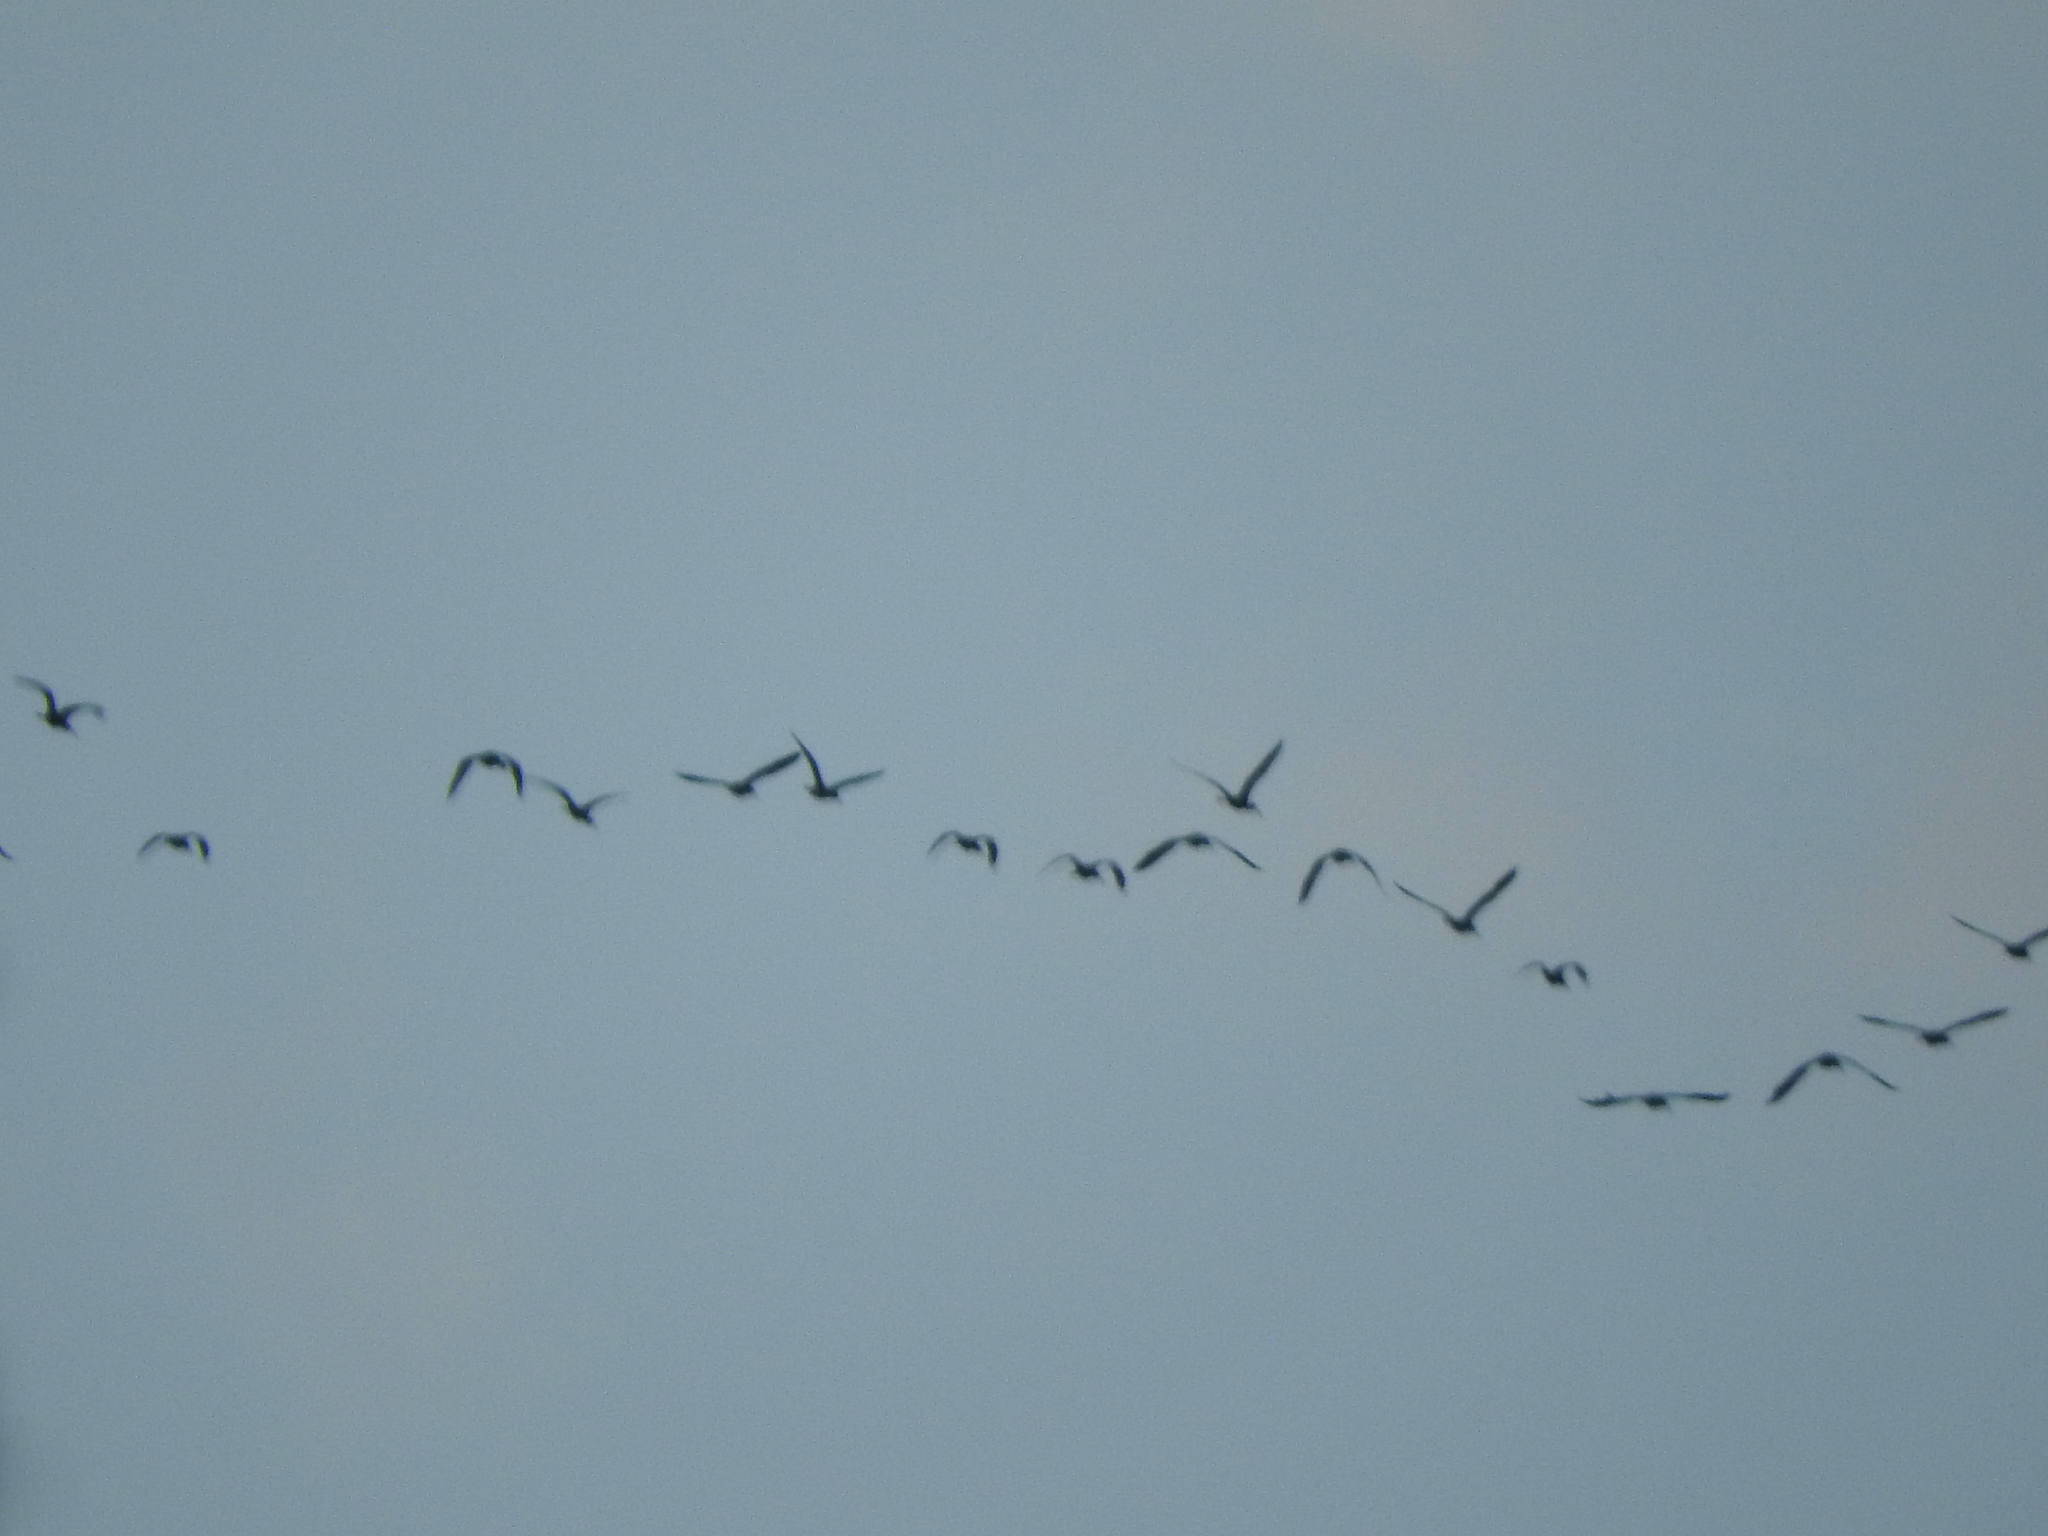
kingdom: Animalia
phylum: Chordata
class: Aves
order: Pelecaniformes
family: Threskiornithidae
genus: Plegadis
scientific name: Plegadis chihi
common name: White-faced ibis
